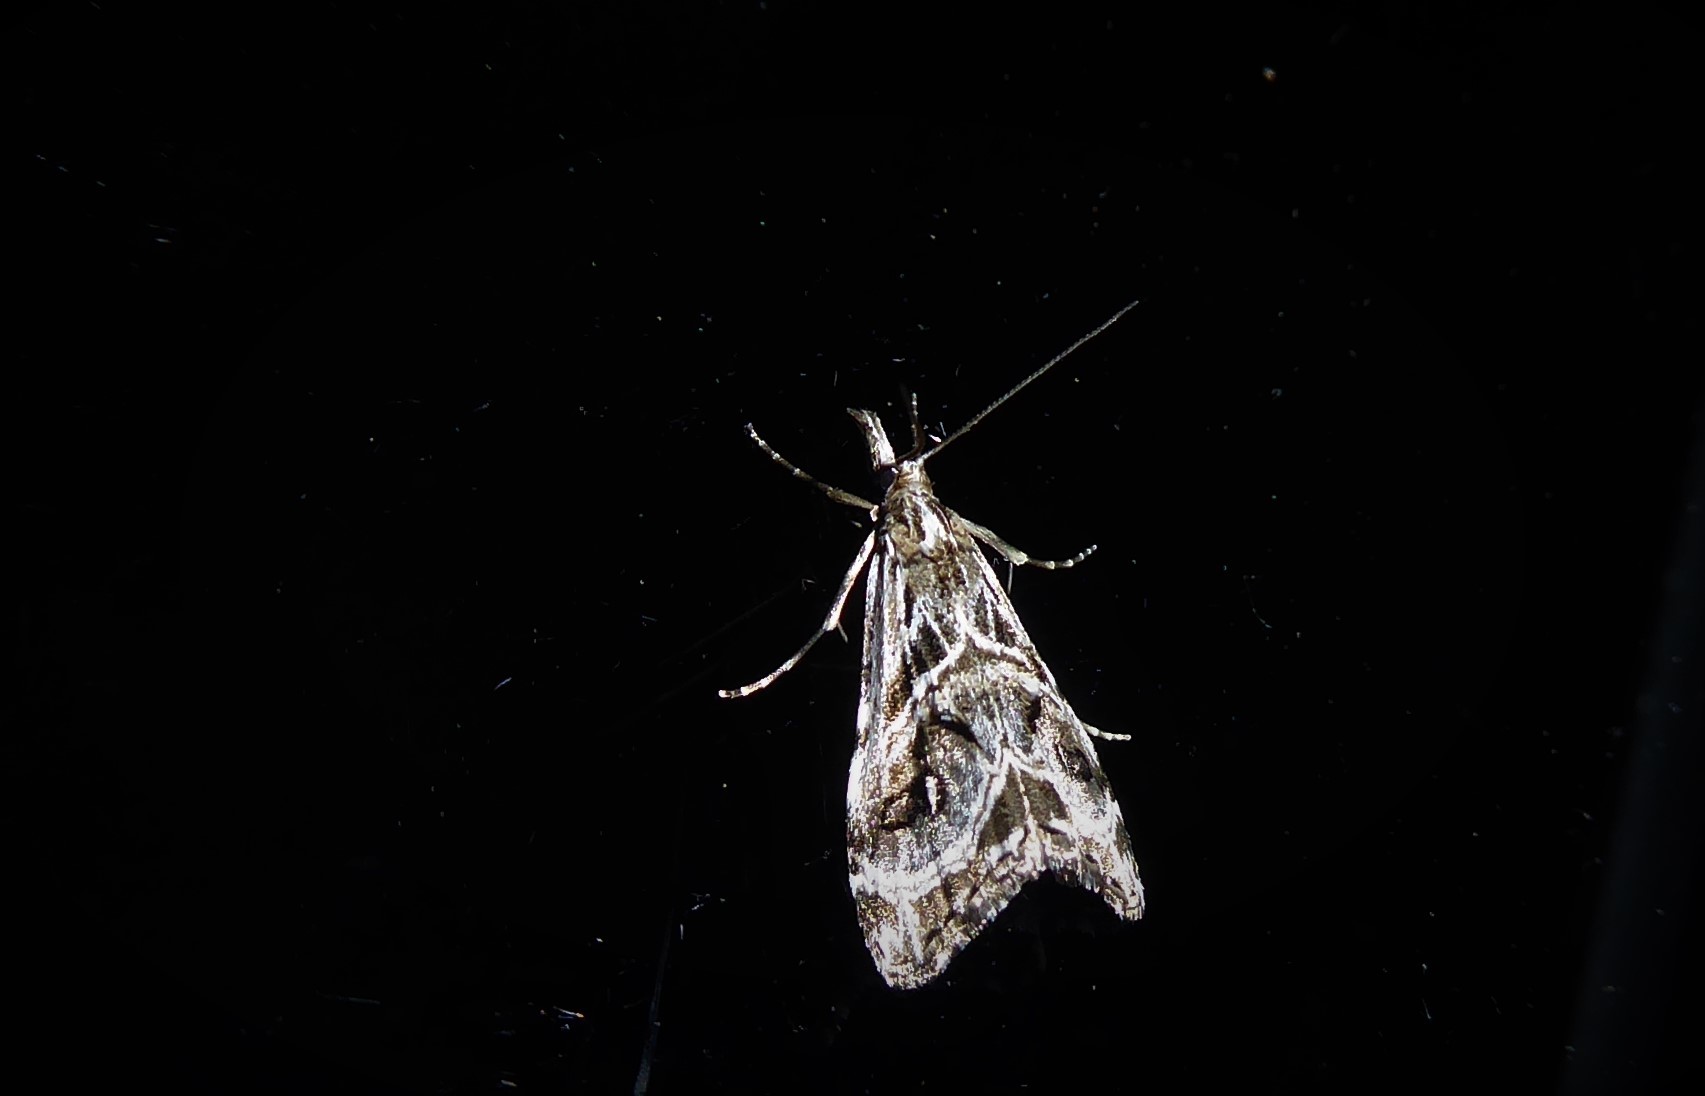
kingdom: Animalia
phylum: Arthropoda
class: Insecta
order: Lepidoptera
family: Crambidae
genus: Gadira
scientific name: Gadira acerella
